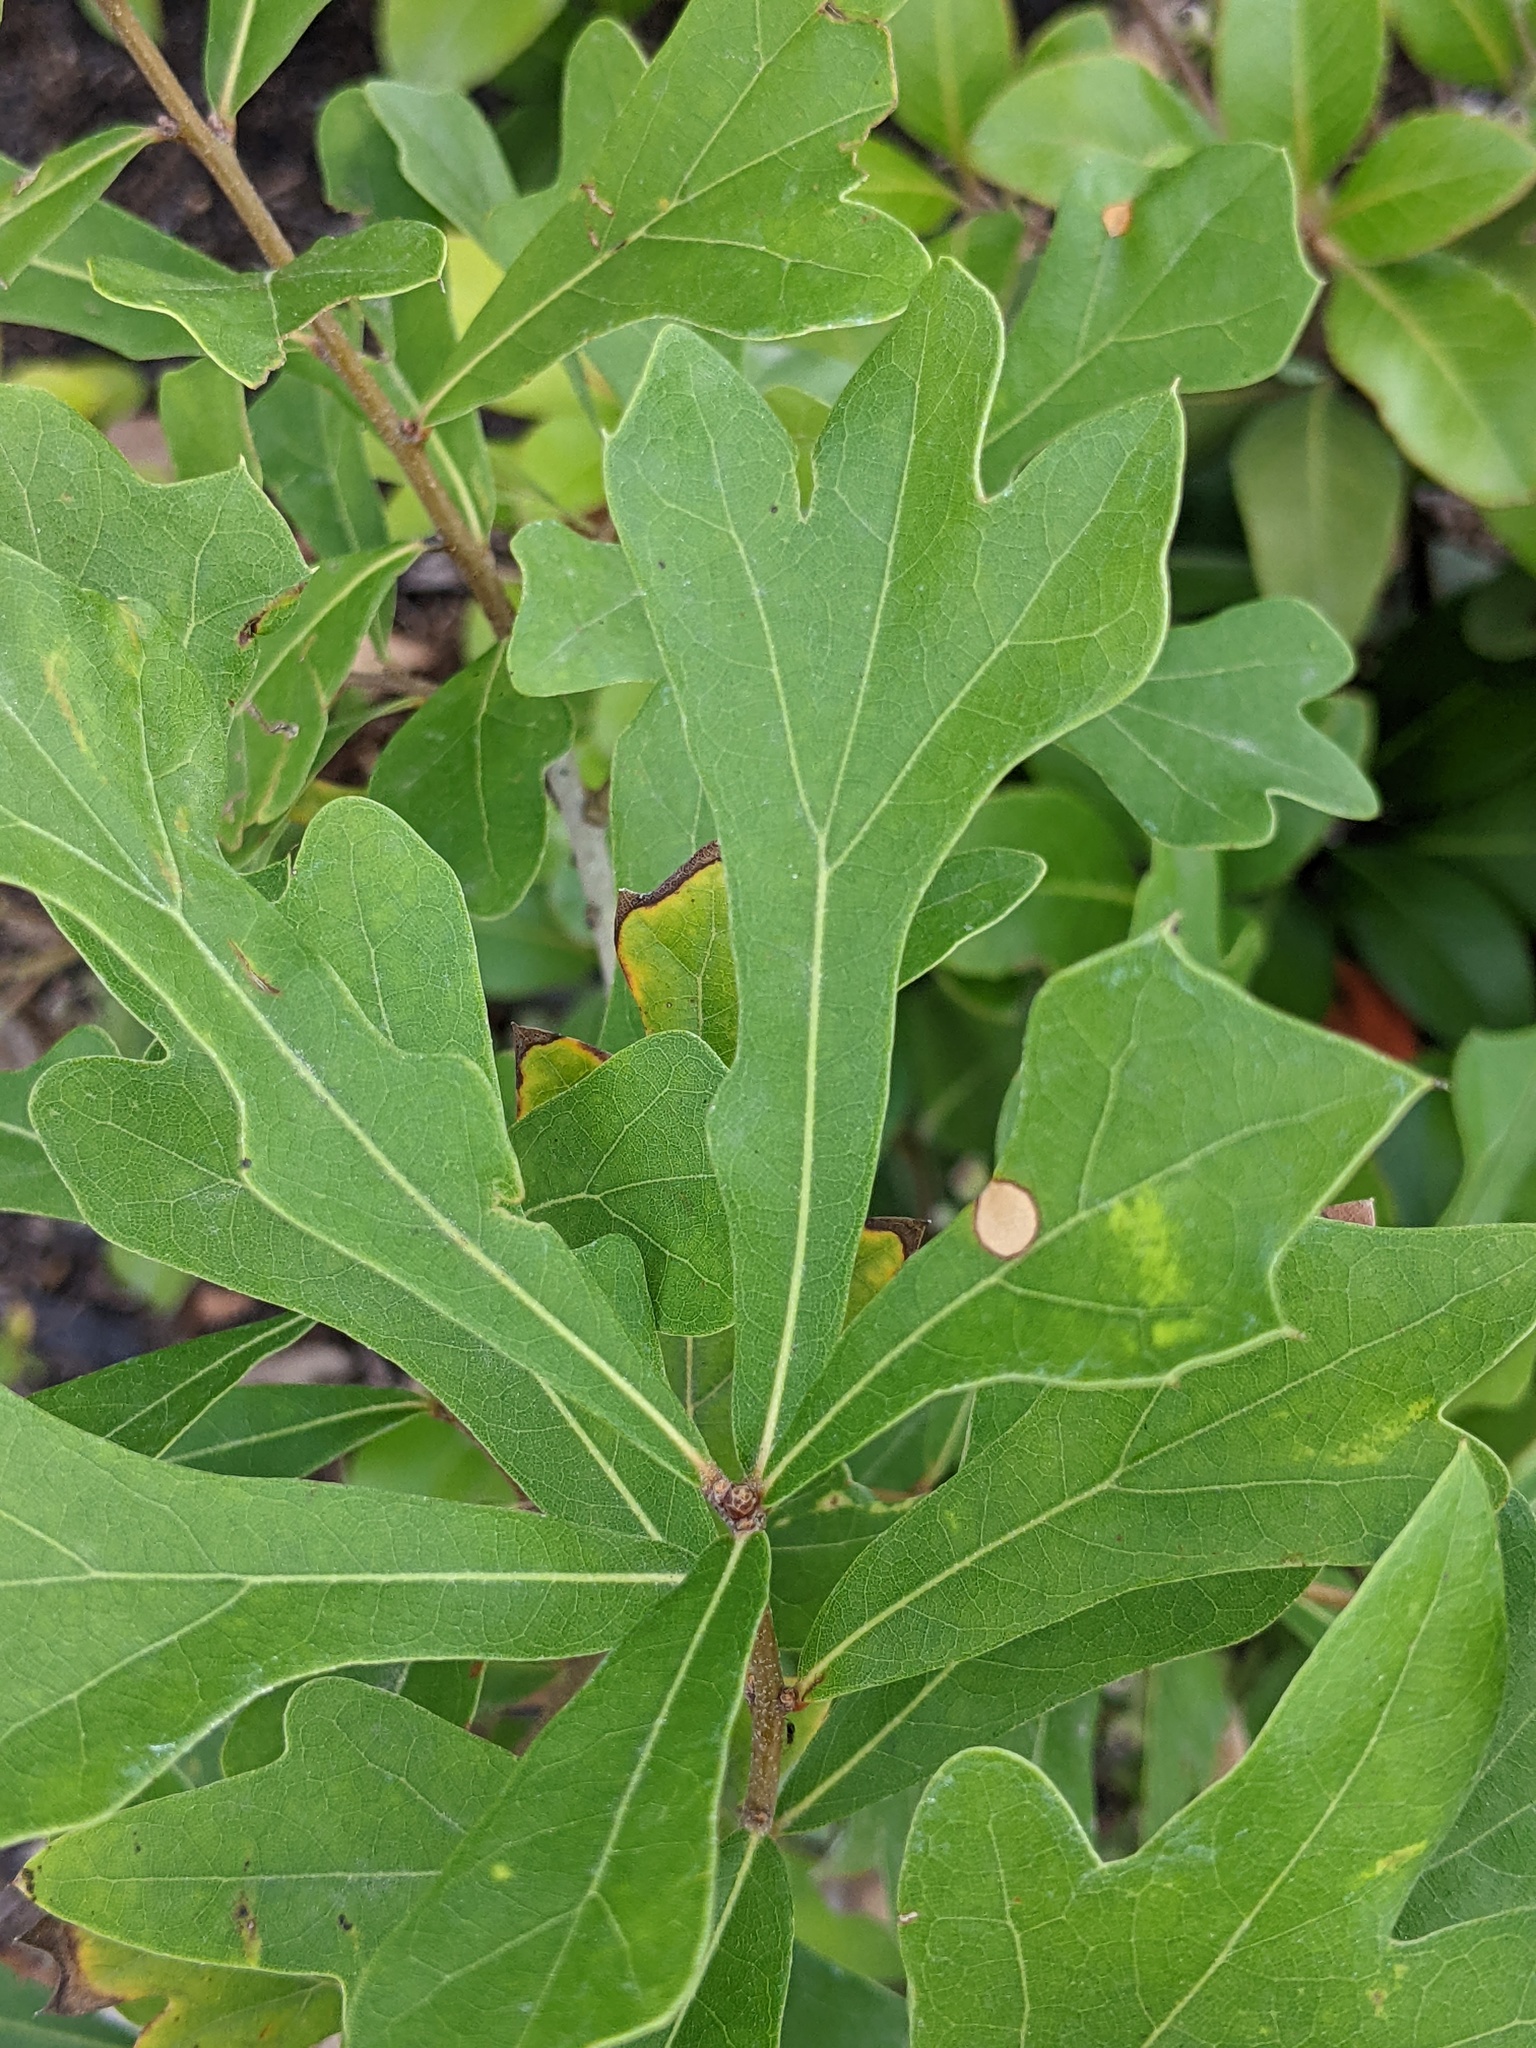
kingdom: Plantae
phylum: Tracheophyta
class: Magnoliopsida
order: Fagales
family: Fagaceae
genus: Quercus
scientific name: Quercus nigra
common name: Water oak
